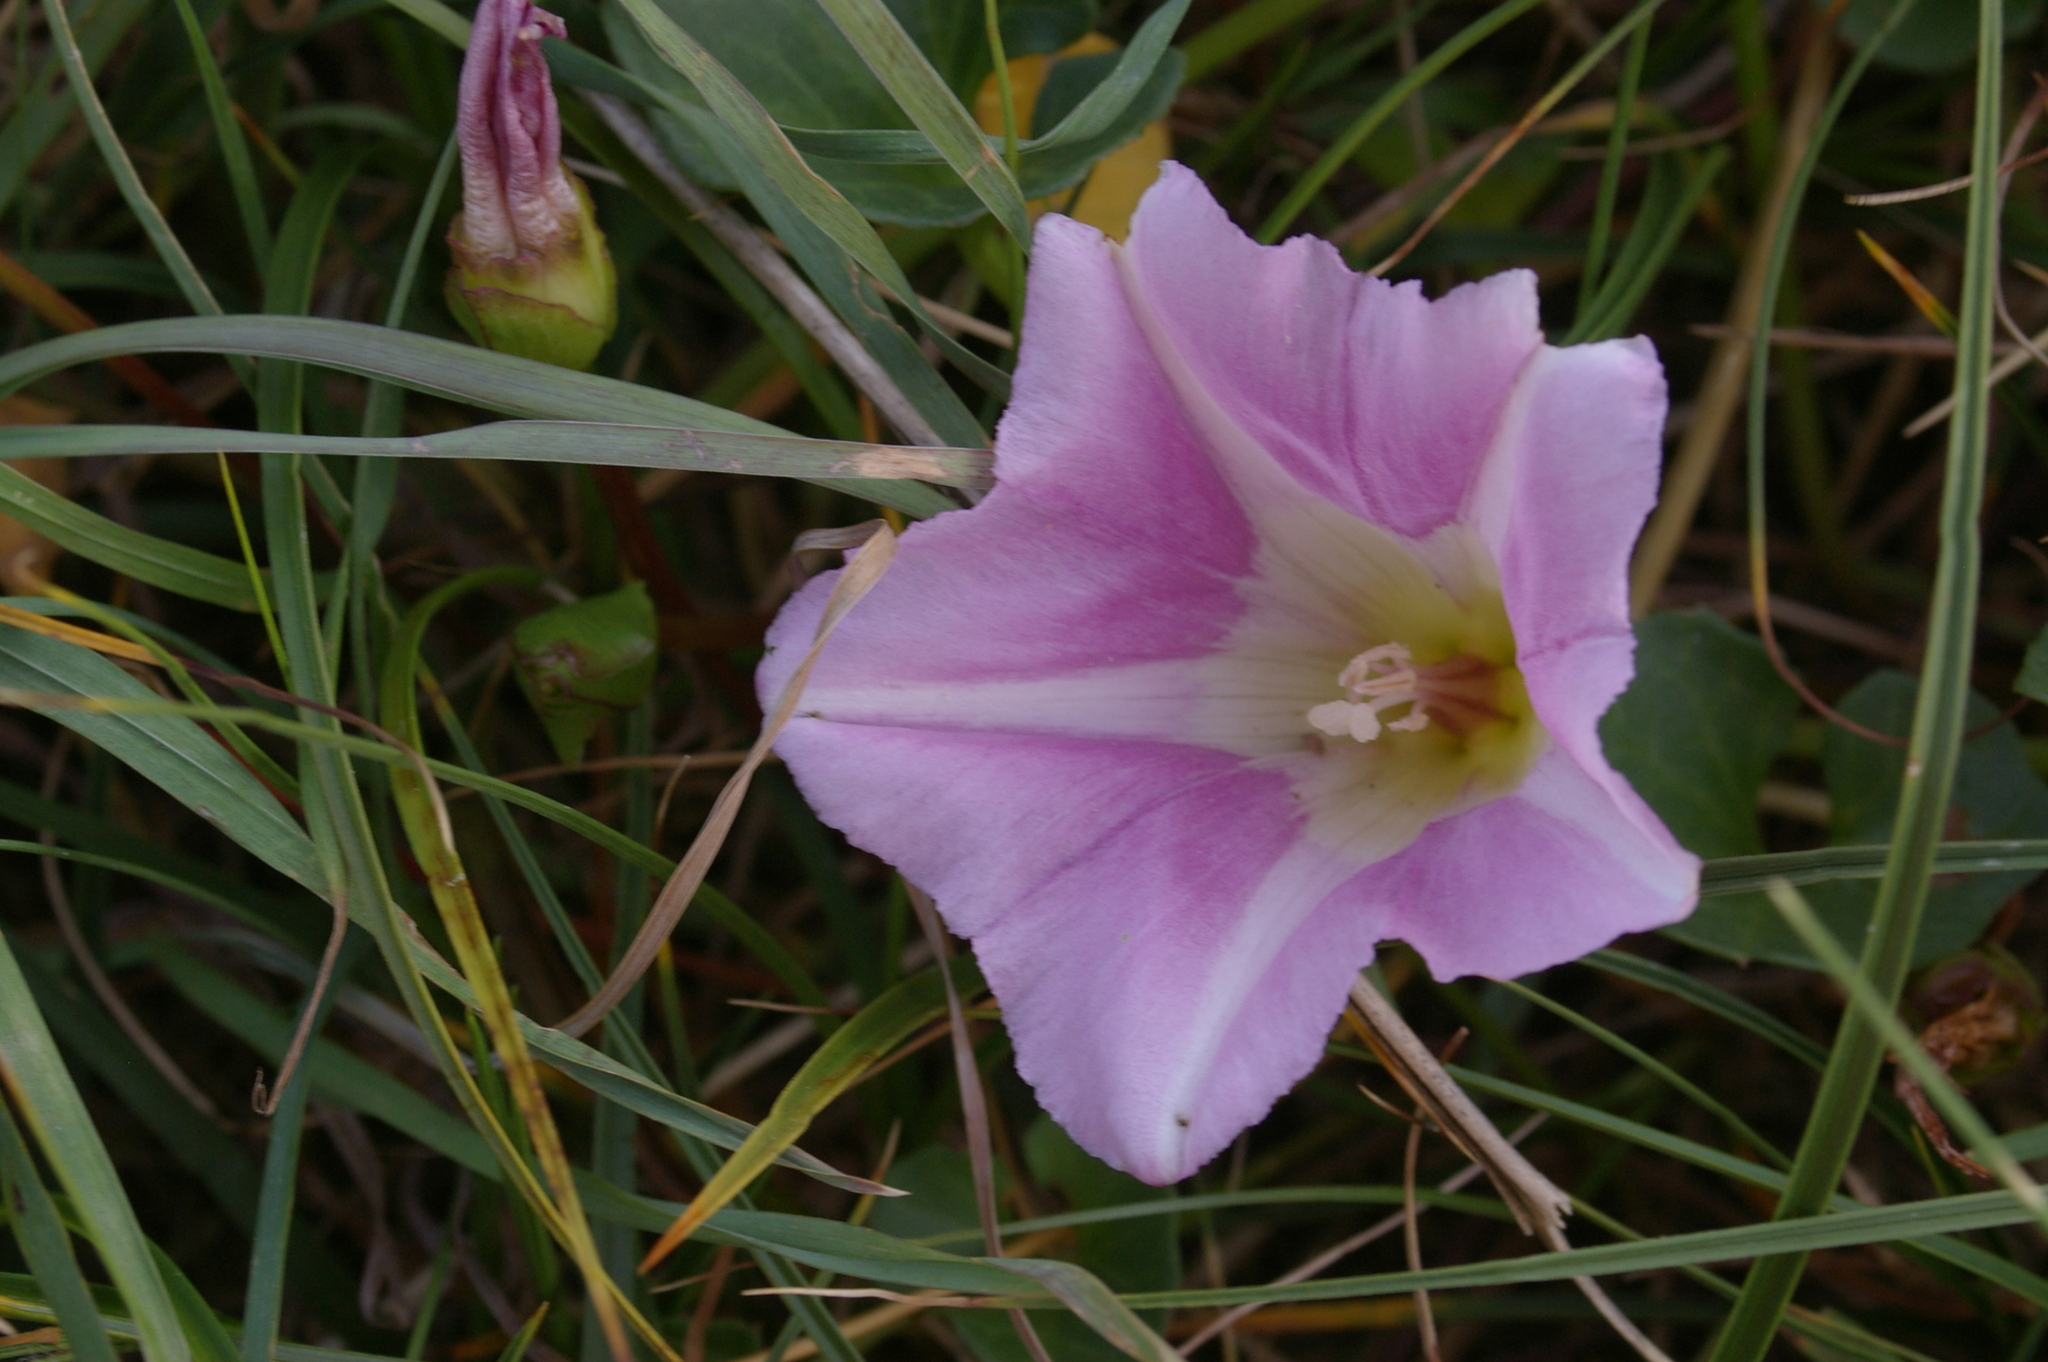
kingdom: Plantae
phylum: Tracheophyta
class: Magnoliopsida
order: Solanales
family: Convolvulaceae
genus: Calystegia
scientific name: Calystegia soldanella
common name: Sea bindweed
